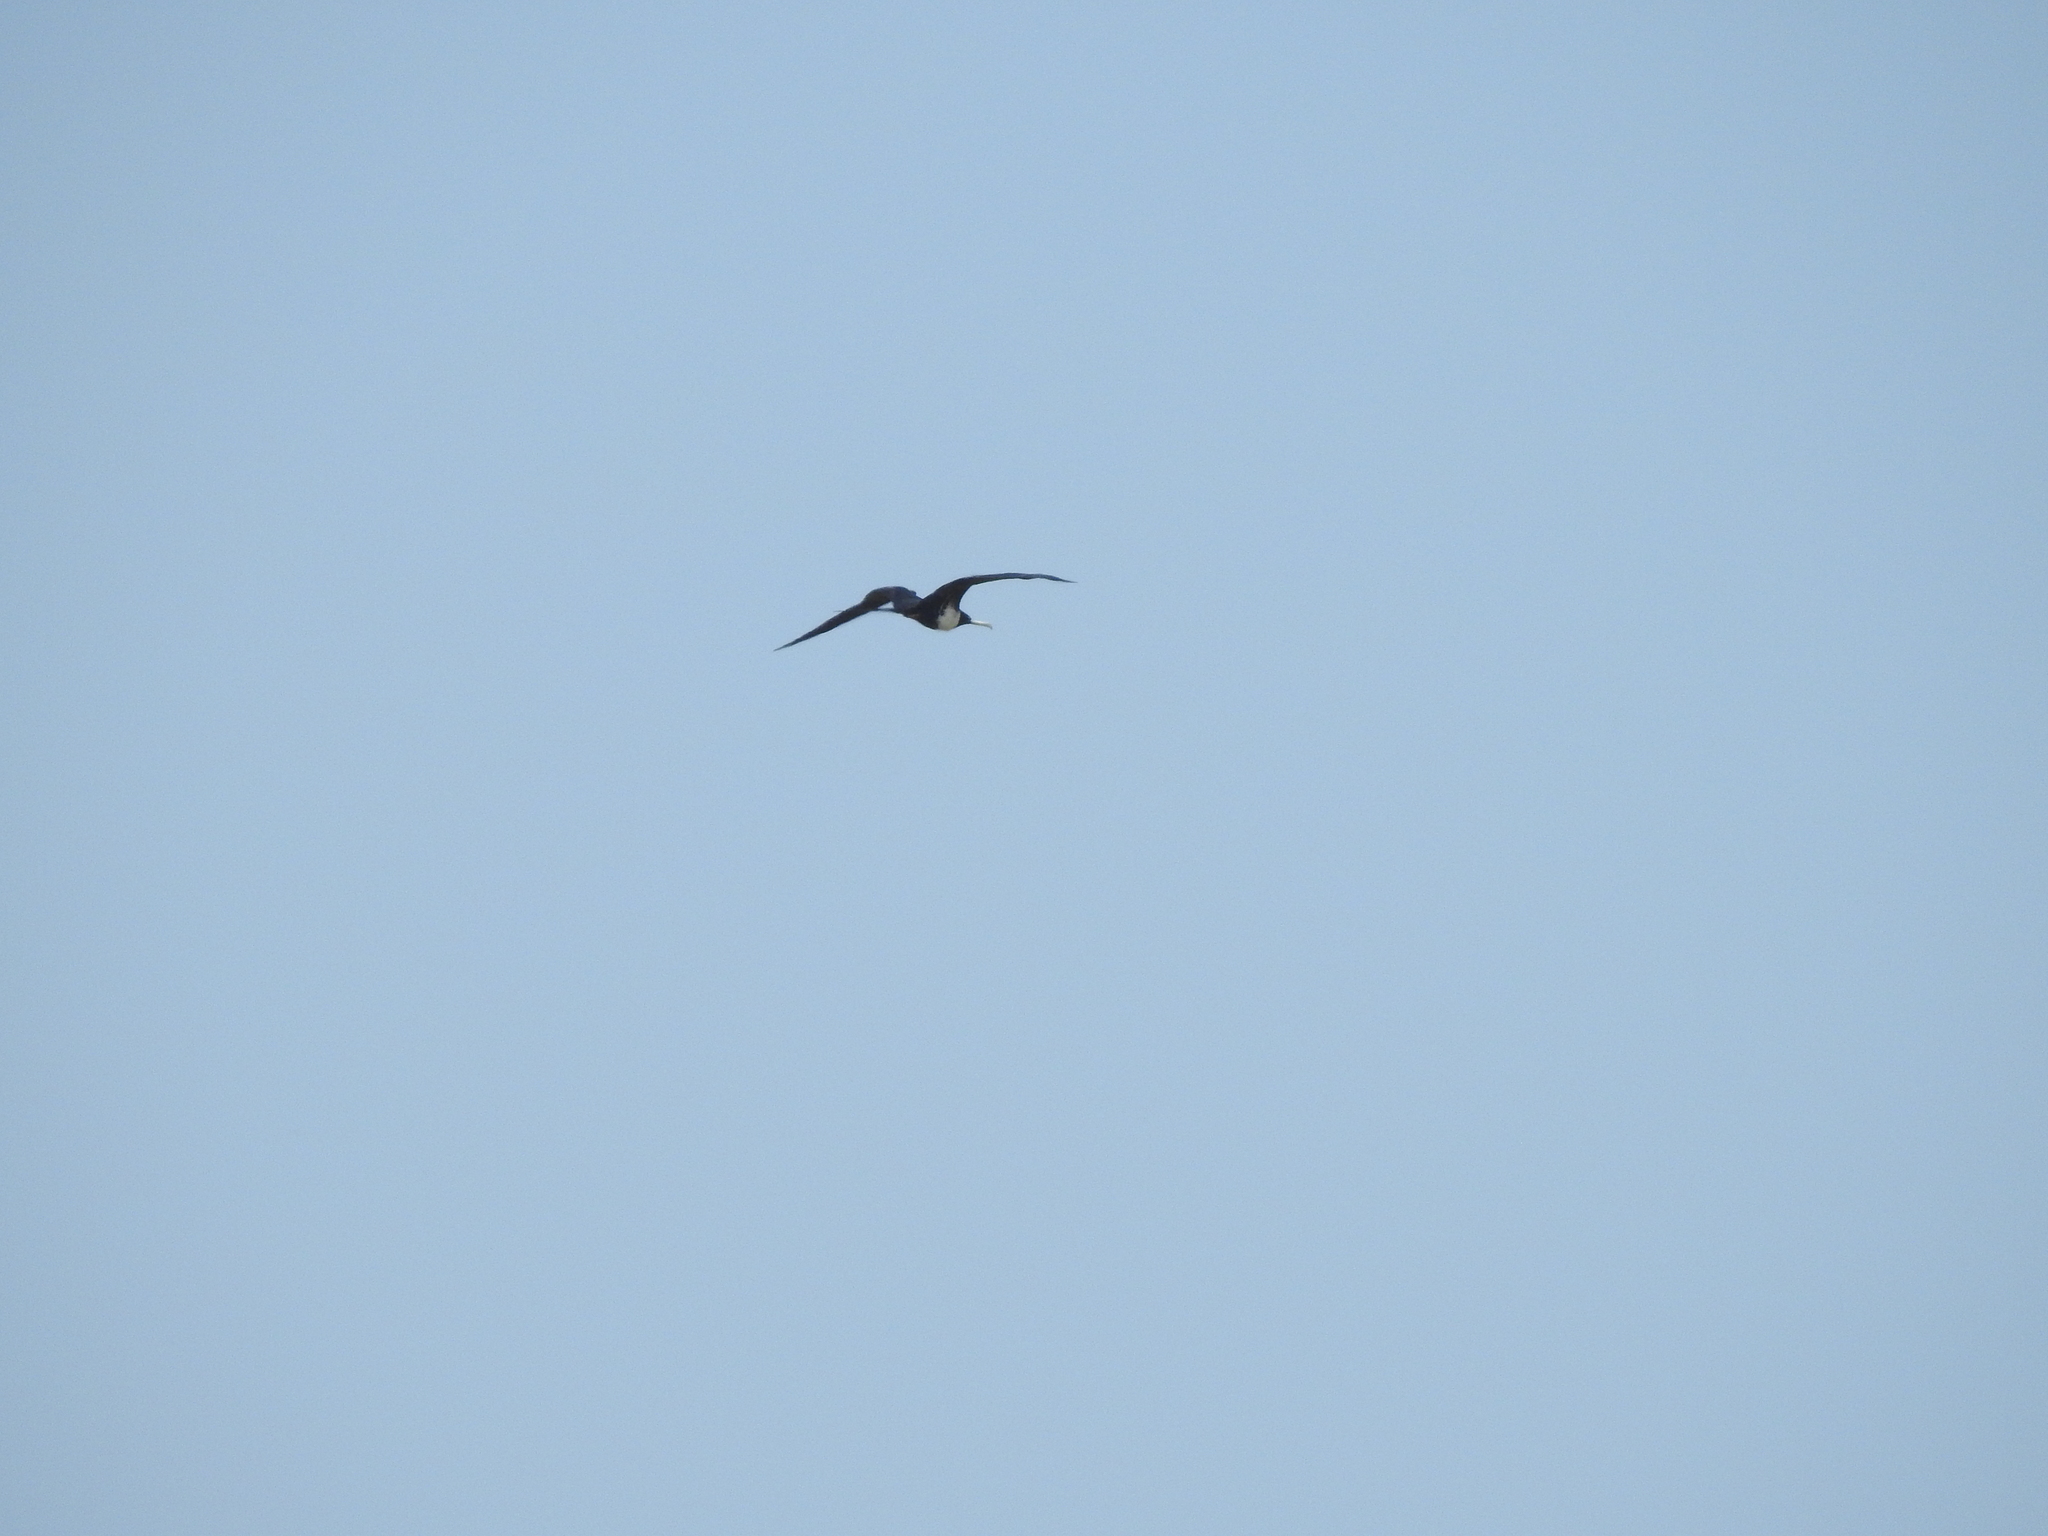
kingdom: Animalia
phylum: Chordata
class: Aves
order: Suliformes
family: Fregatidae
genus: Fregata
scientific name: Fregata magnificens
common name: Magnificent frigatebird
